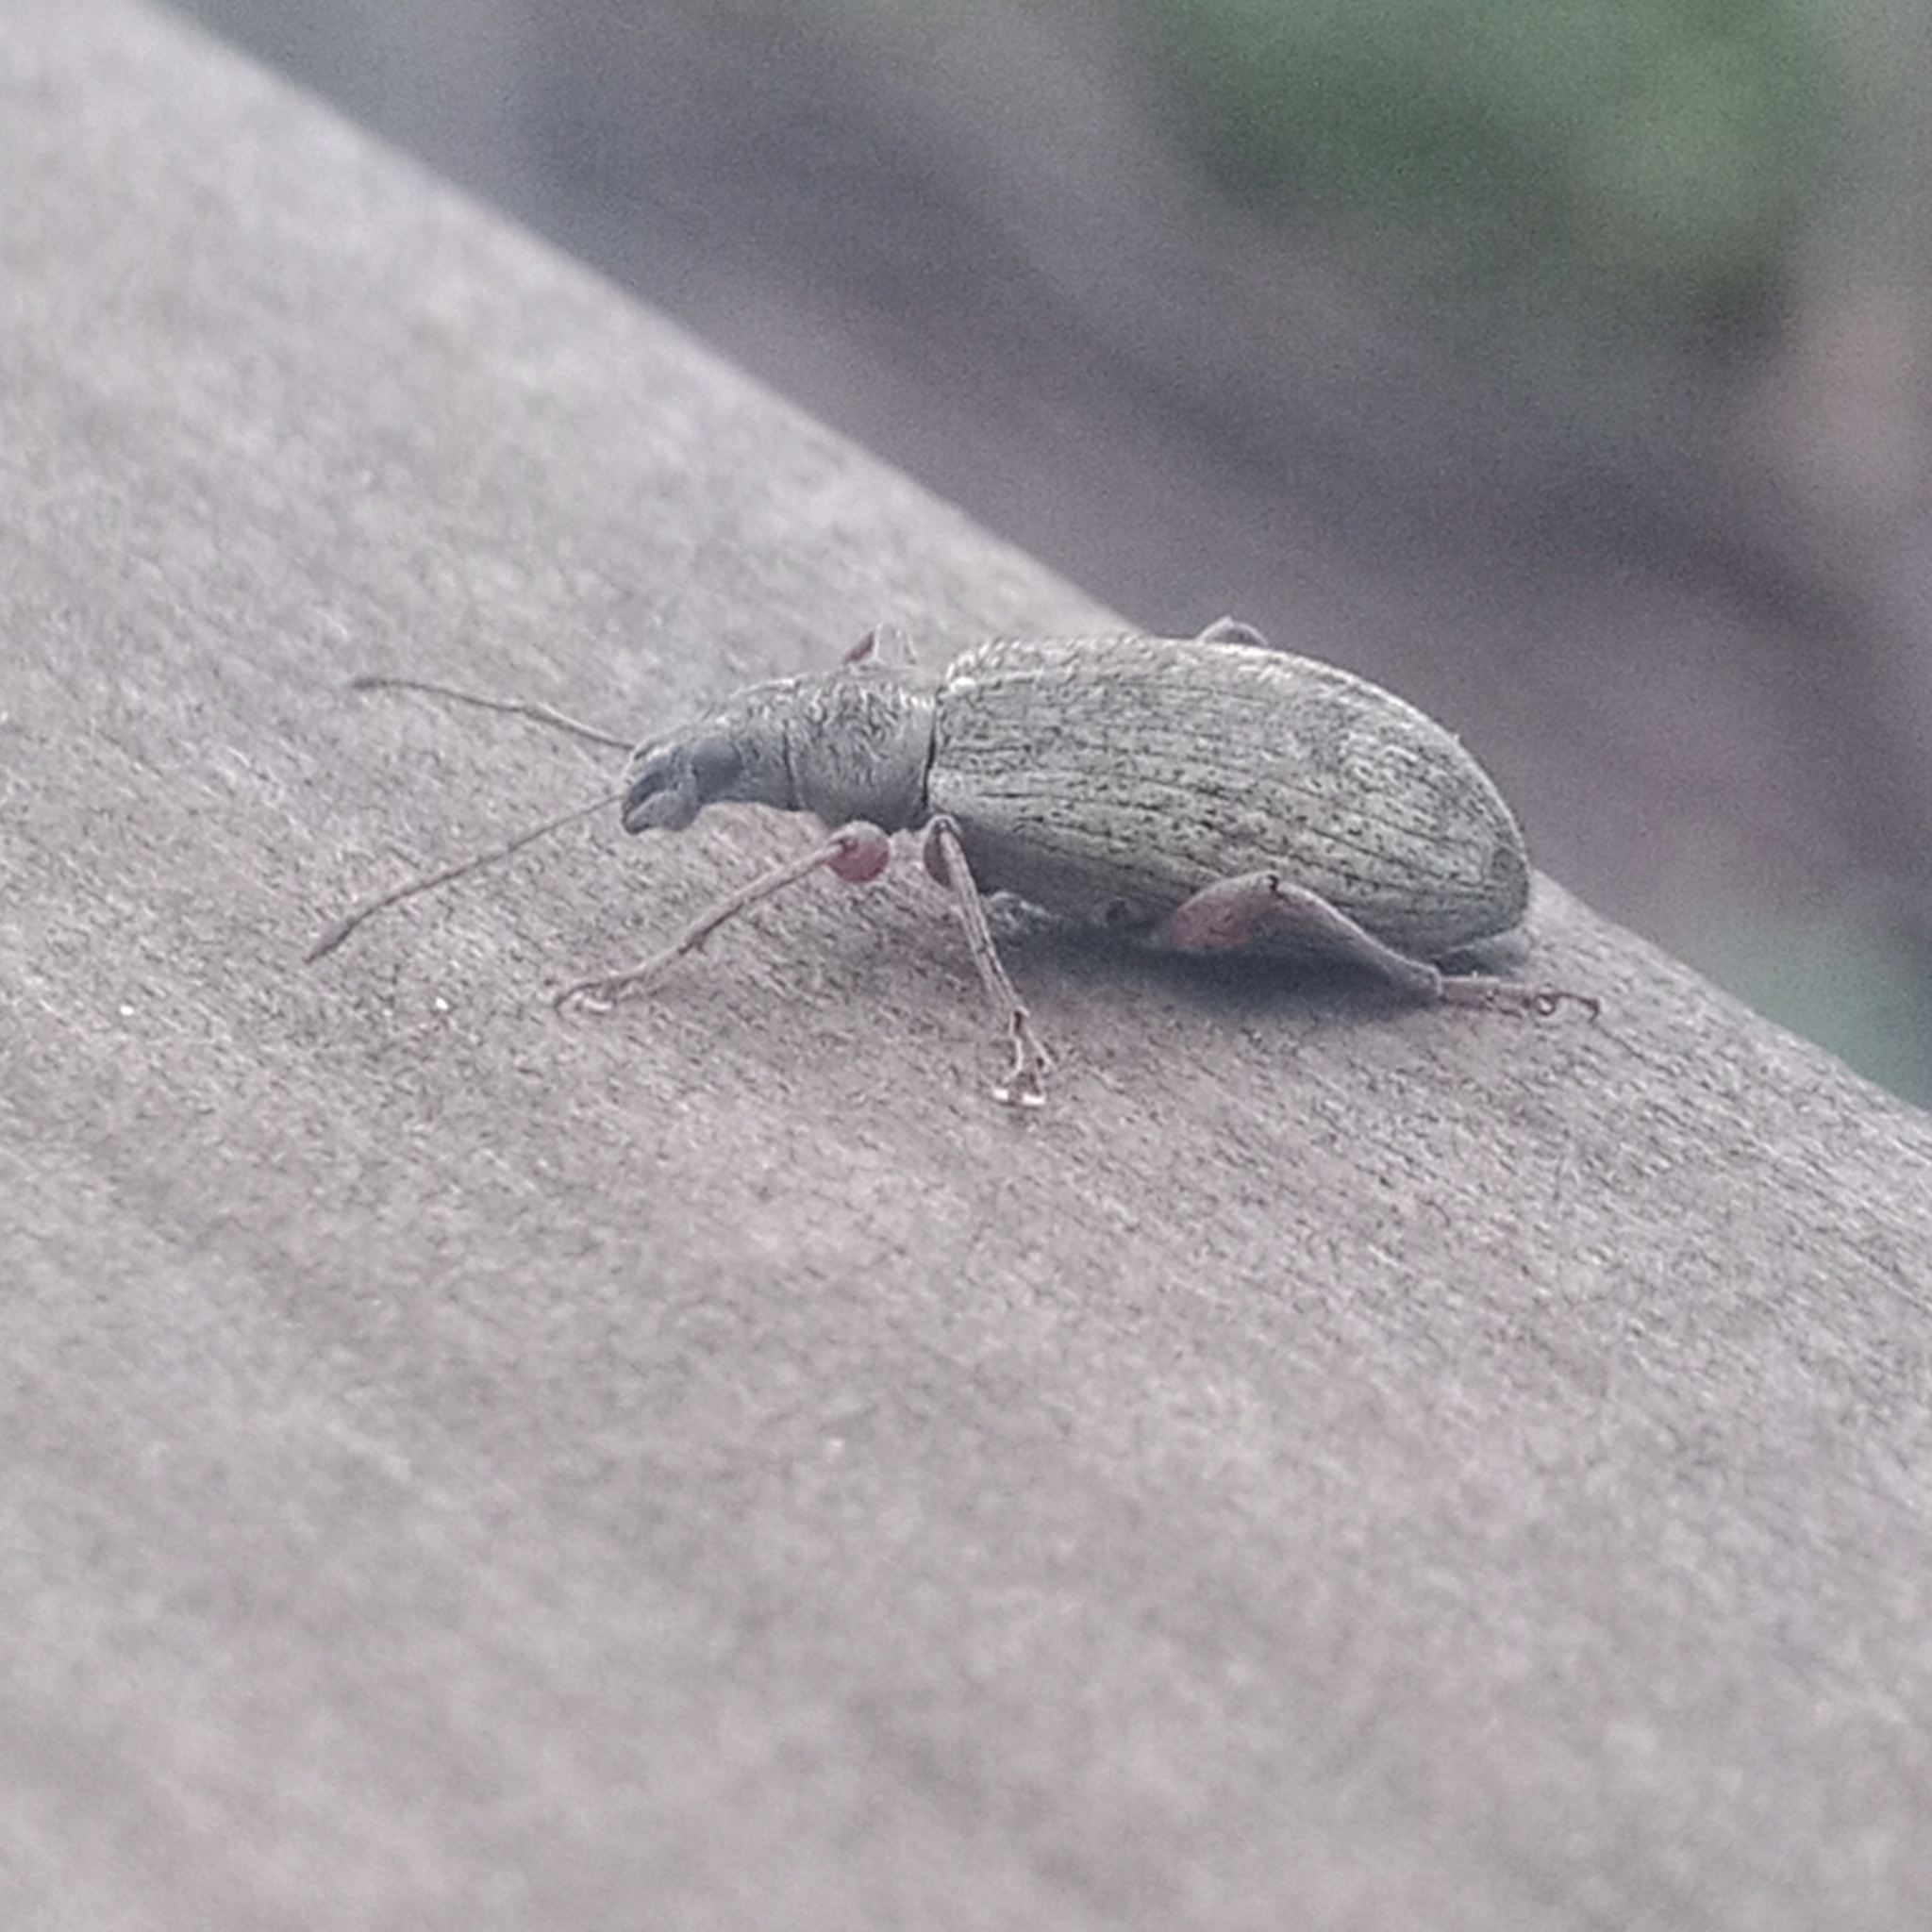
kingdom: Animalia
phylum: Arthropoda
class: Insecta
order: Coleoptera
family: Curculionidae
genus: Phyllobius
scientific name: Phyllobius glaucus
